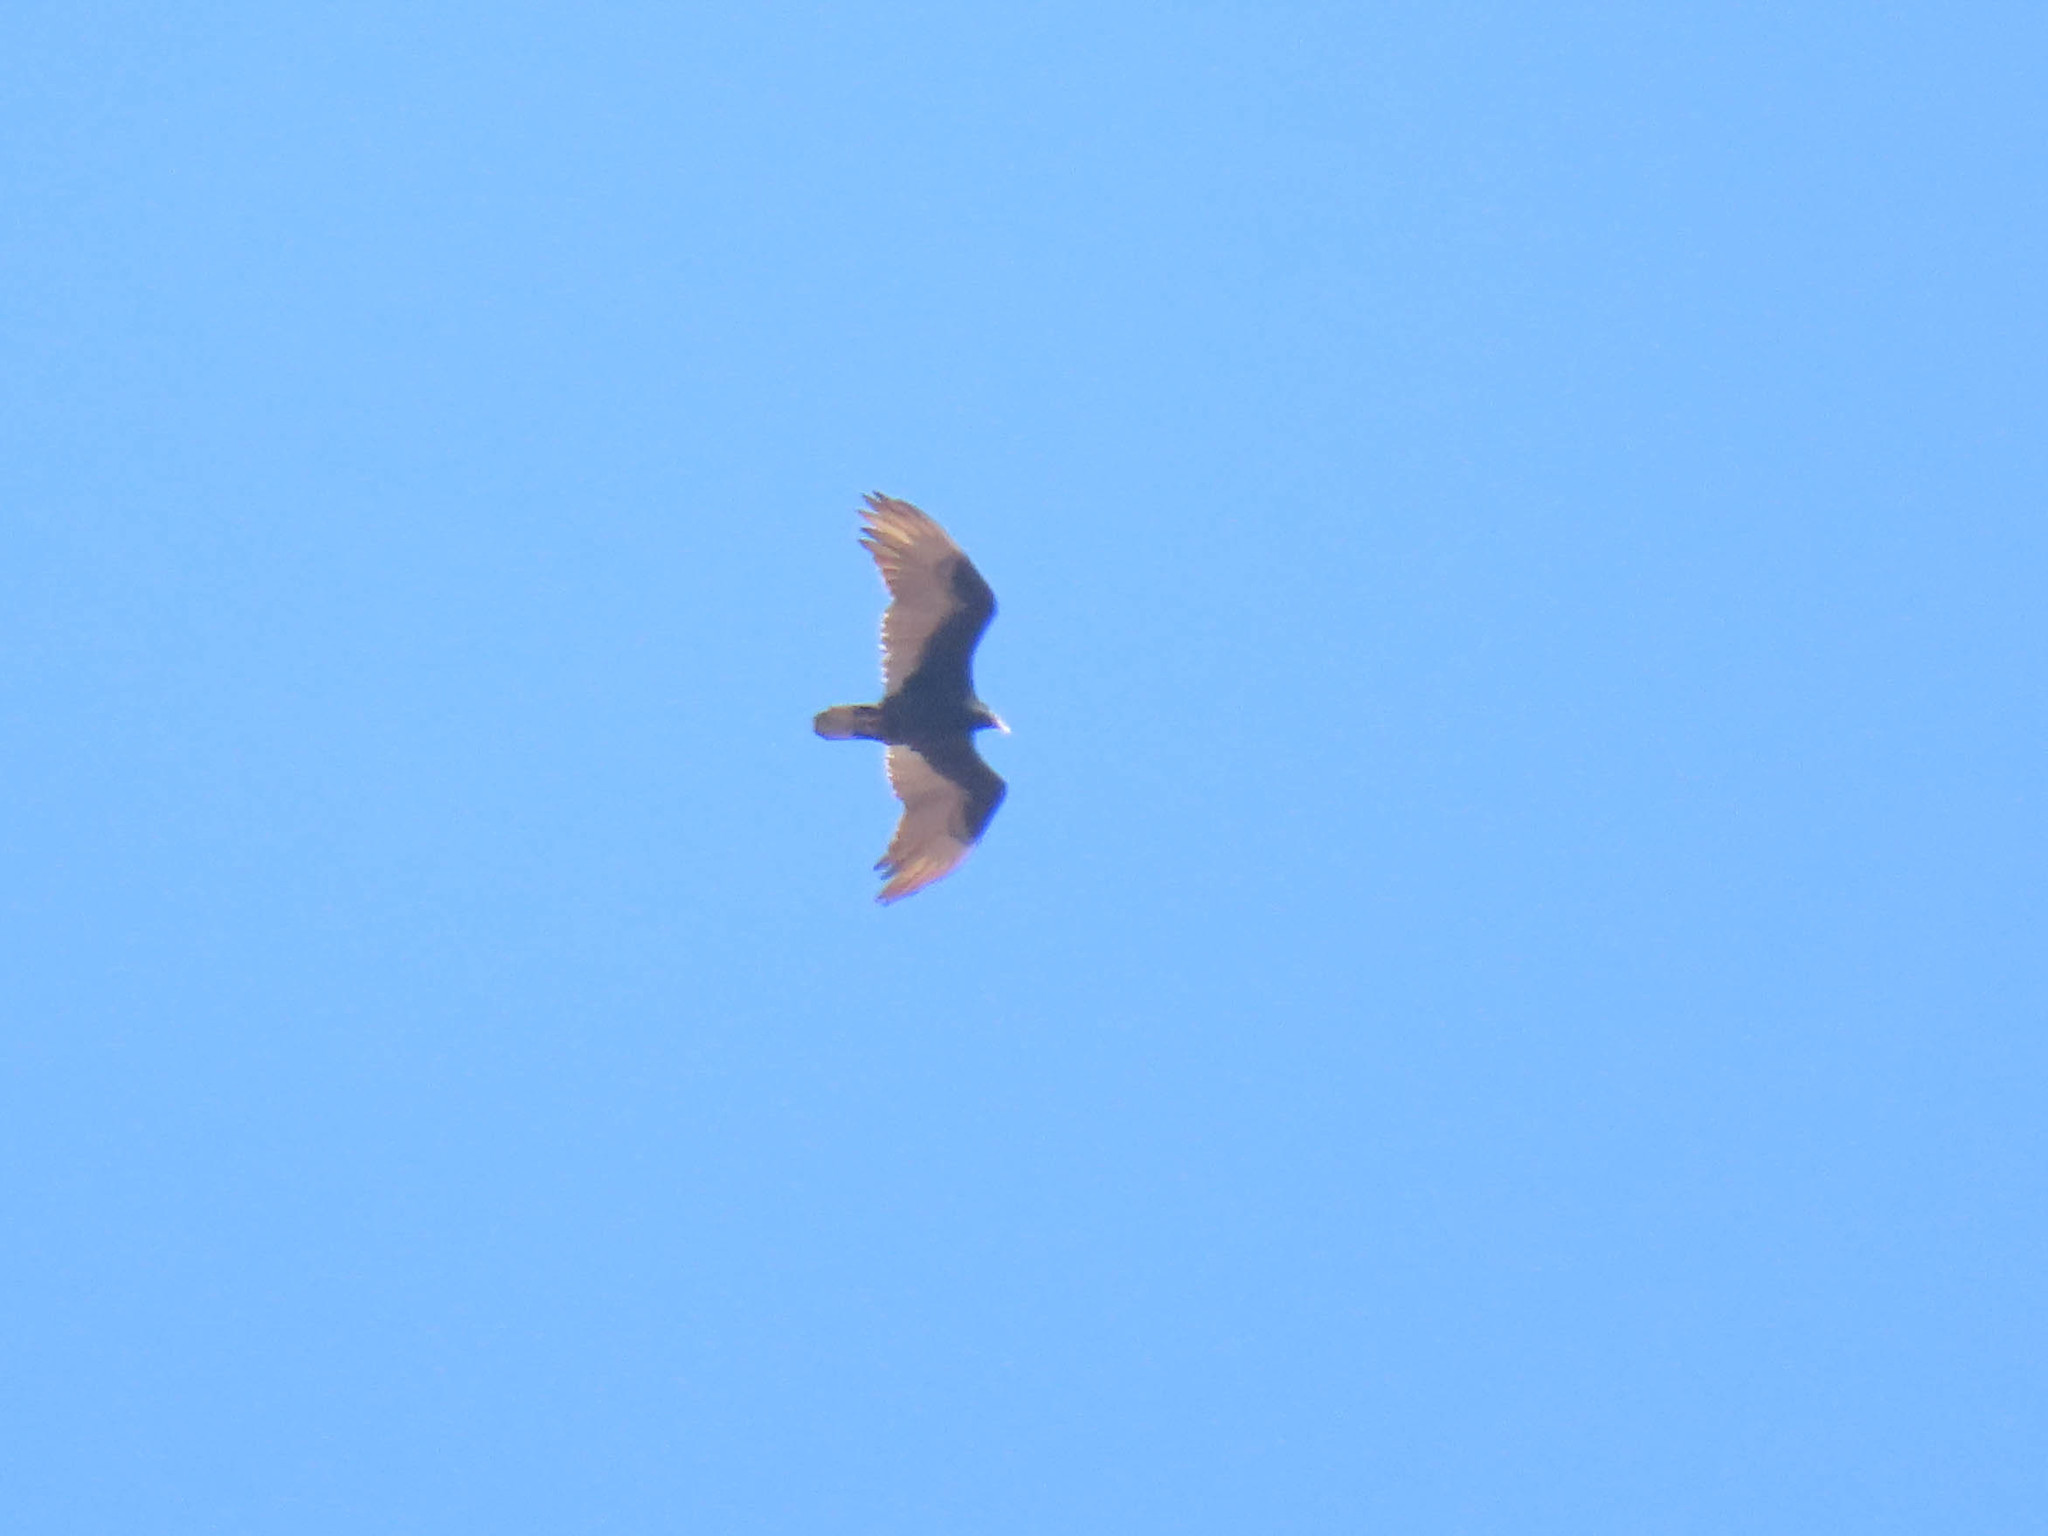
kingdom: Animalia
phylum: Chordata
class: Aves
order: Accipitriformes
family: Cathartidae
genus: Cathartes
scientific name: Cathartes aura
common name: Turkey vulture
